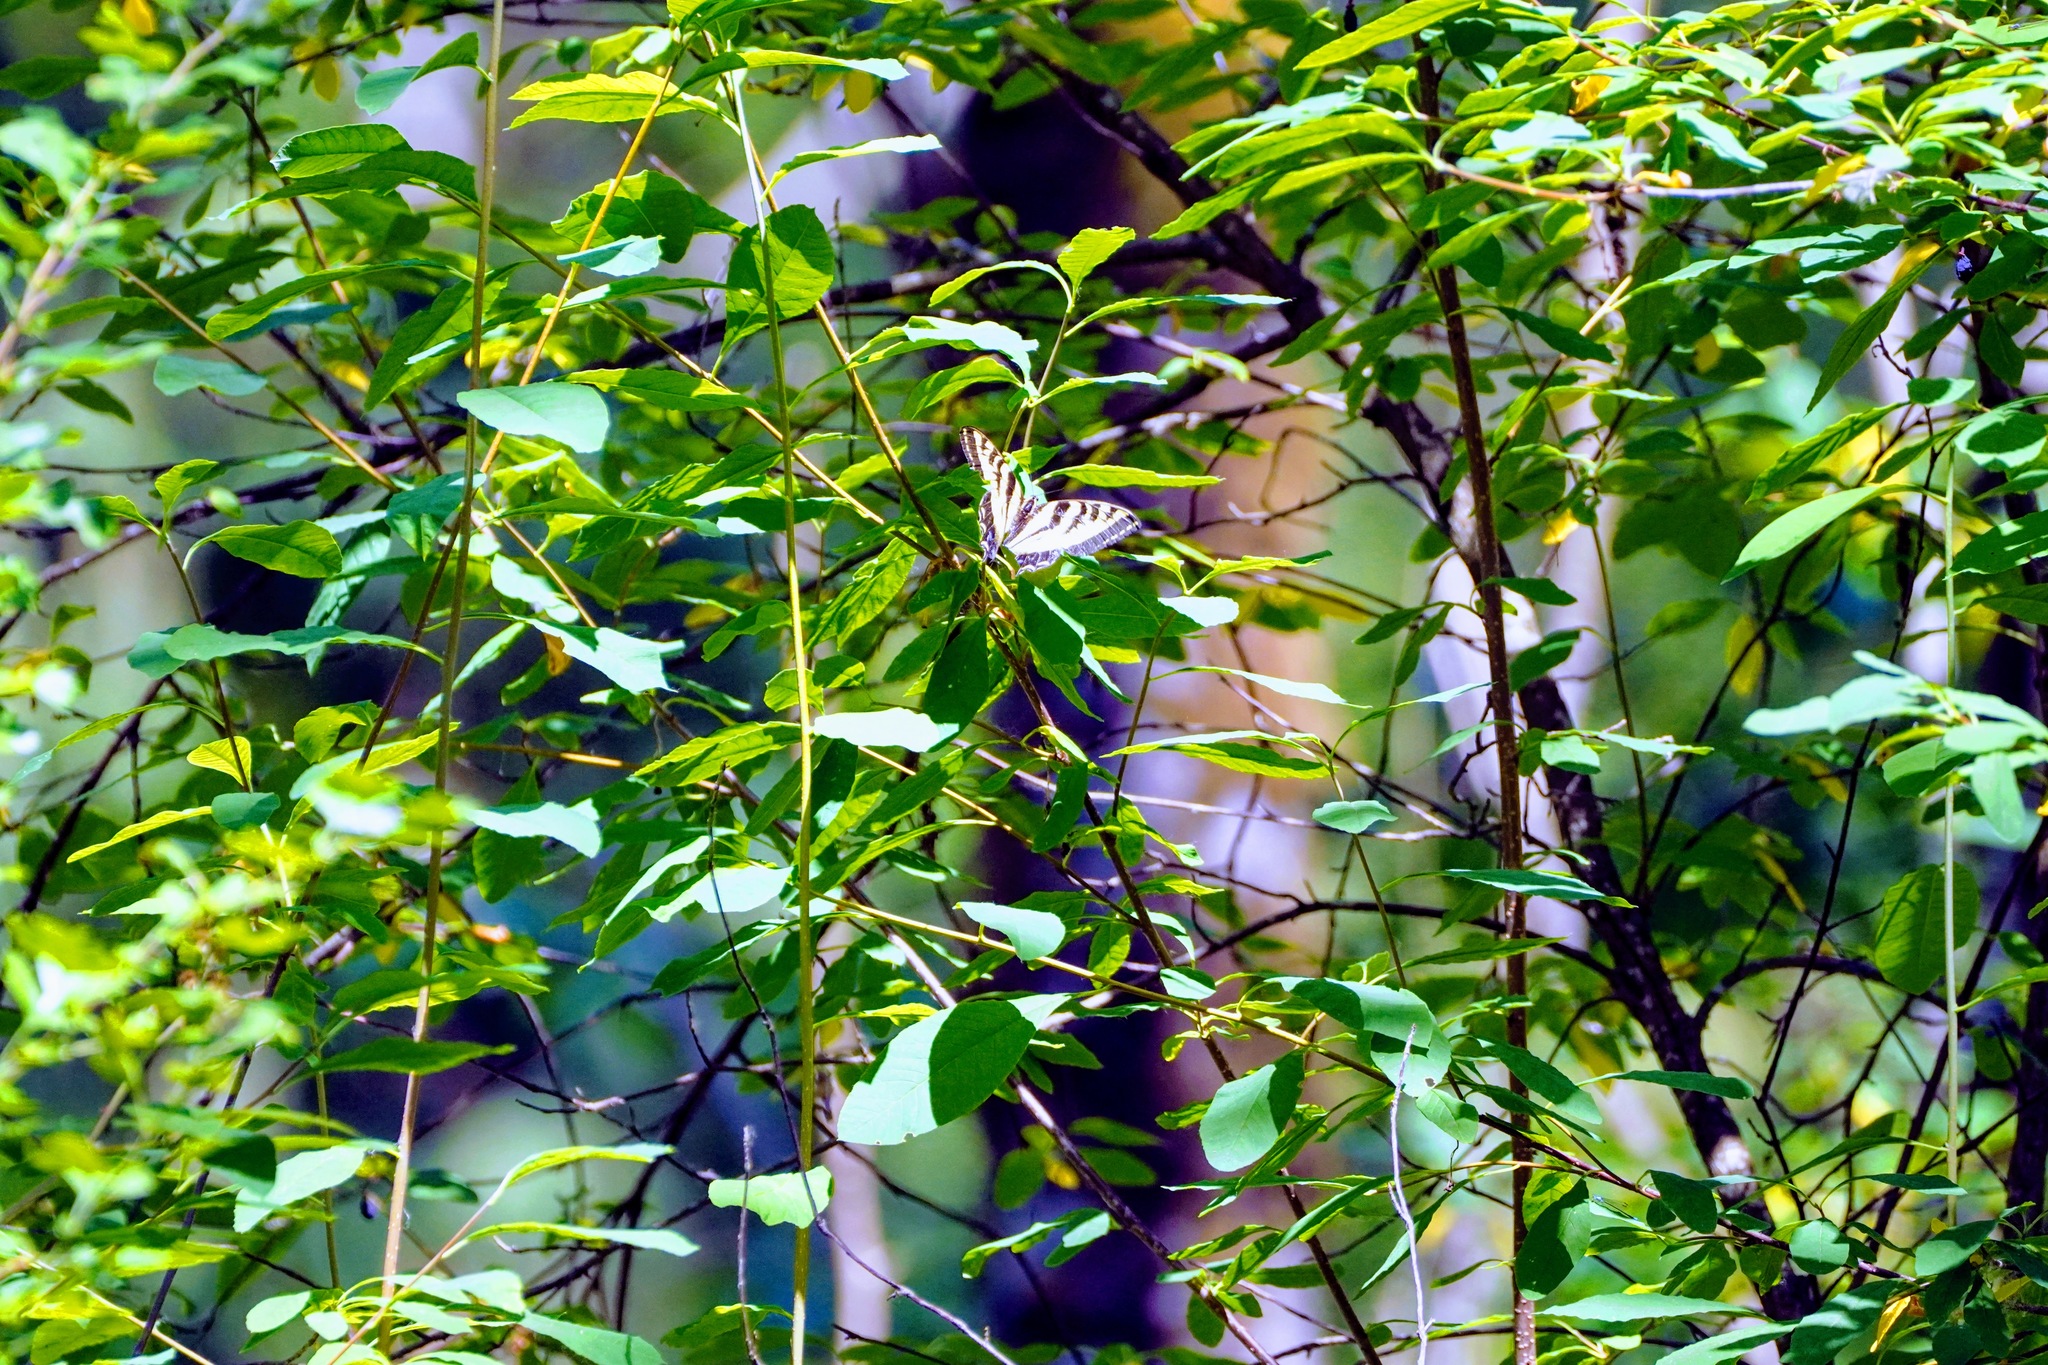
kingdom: Animalia
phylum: Arthropoda
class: Insecta
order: Lepidoptera
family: Papilionidae
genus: Papilio
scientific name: Papilio rutulus
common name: Western tiger swallowtail
